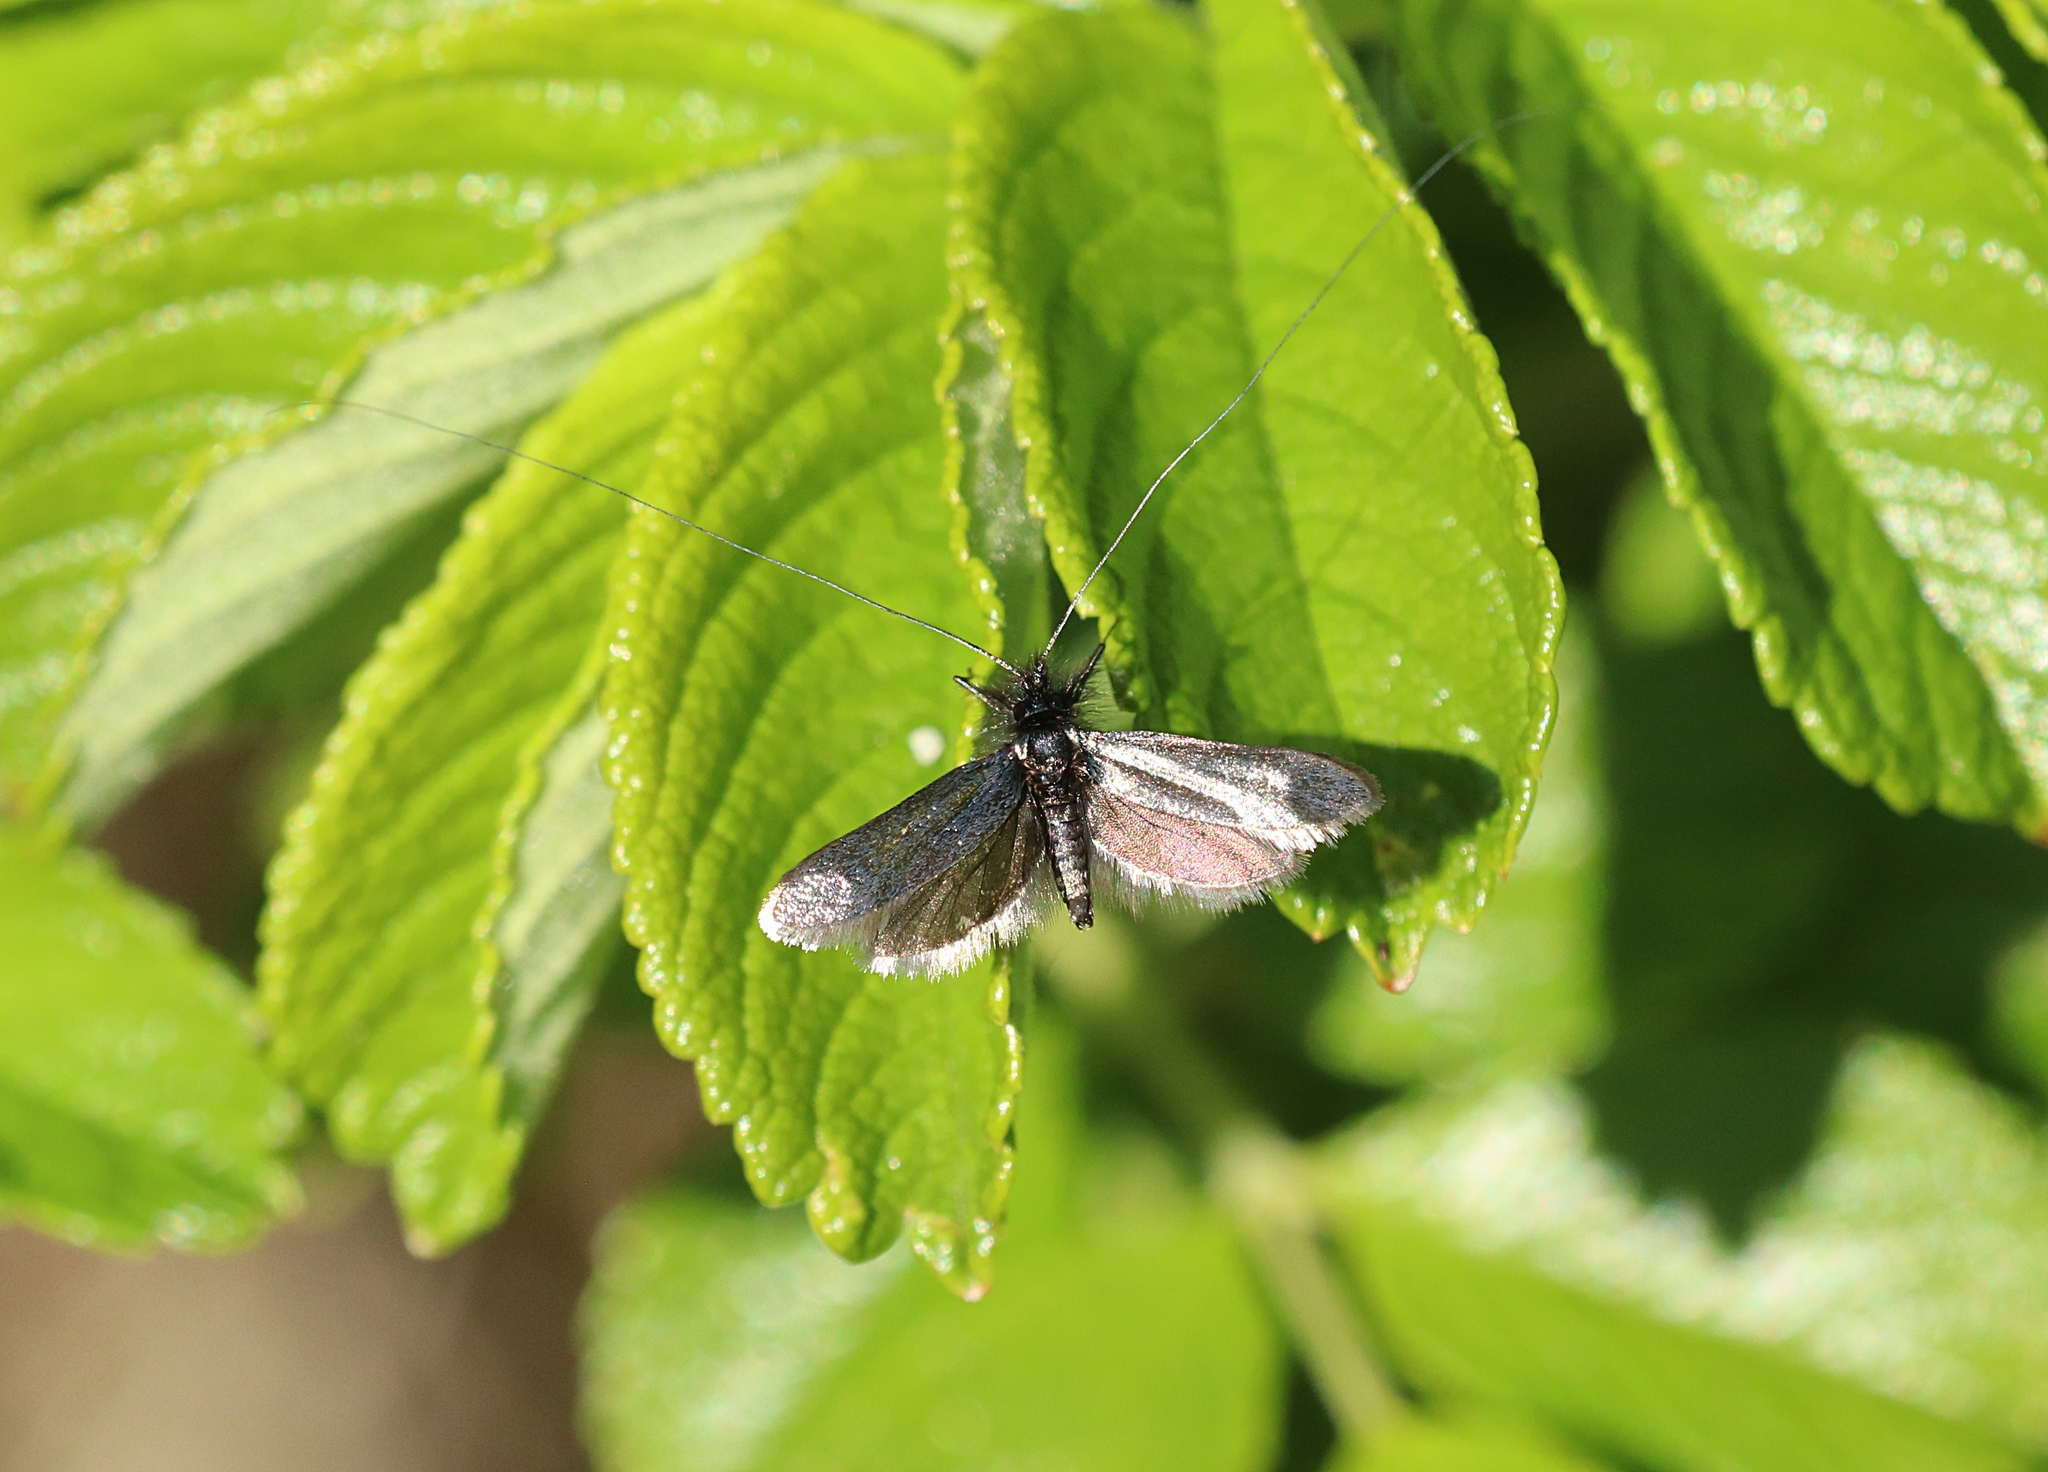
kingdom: Animalia
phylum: Arthropoda
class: Insecta
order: Lepidoptera
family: Adelidae
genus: Adela
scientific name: Adela viridella
